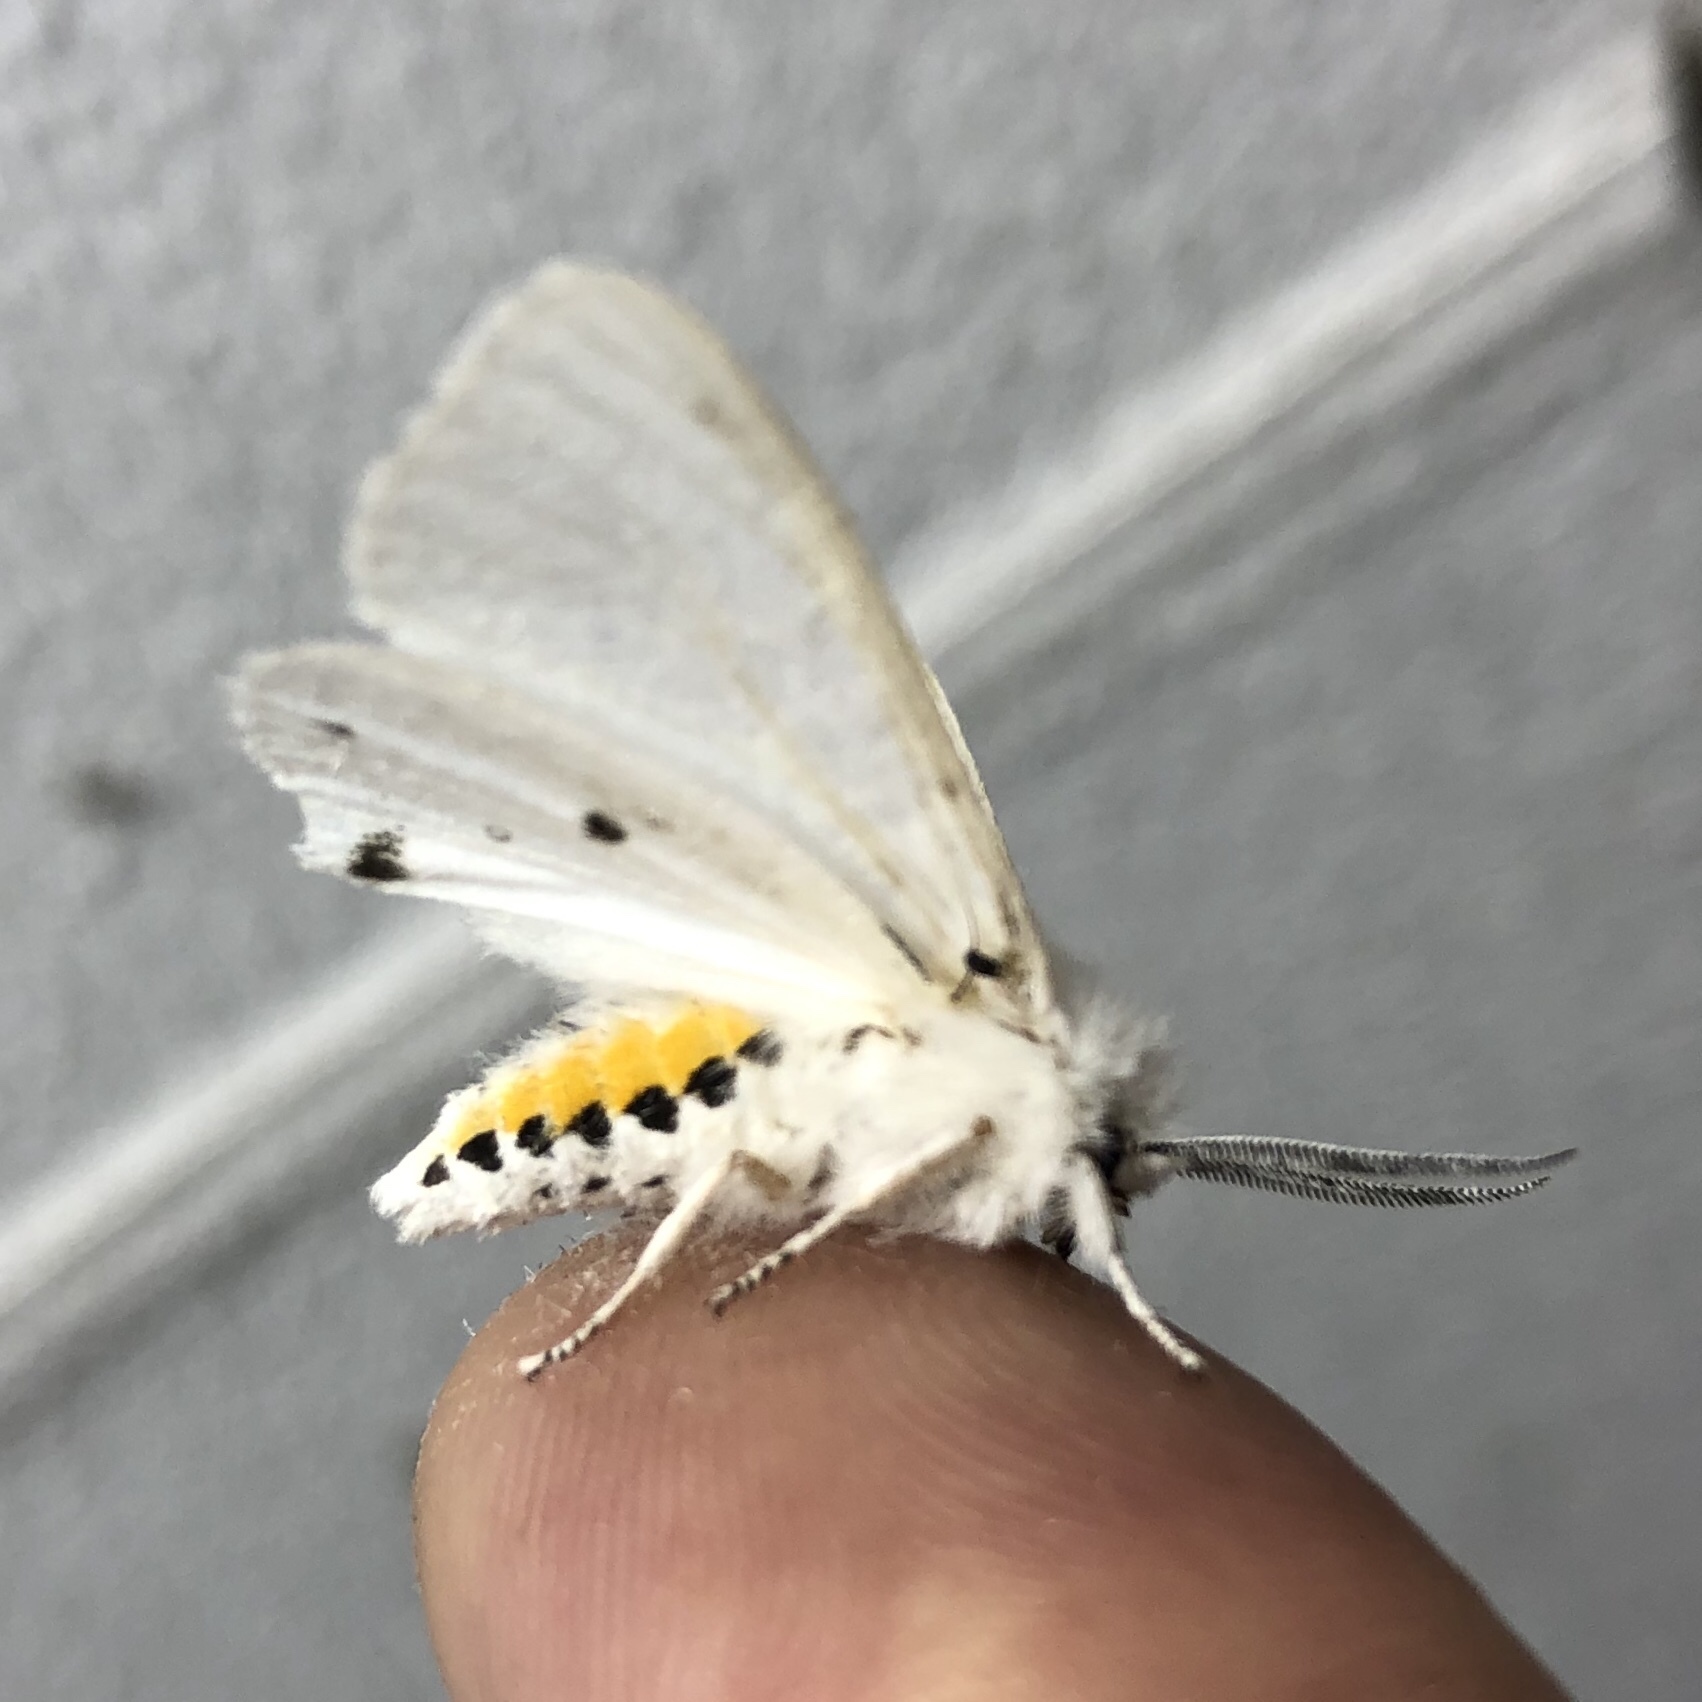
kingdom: Animalia
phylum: Arthropoda
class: Insecta
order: Lepidoptera
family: Erebidae
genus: Spilosoma
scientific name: Spilosoma virginica
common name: Virginia tiger moth
